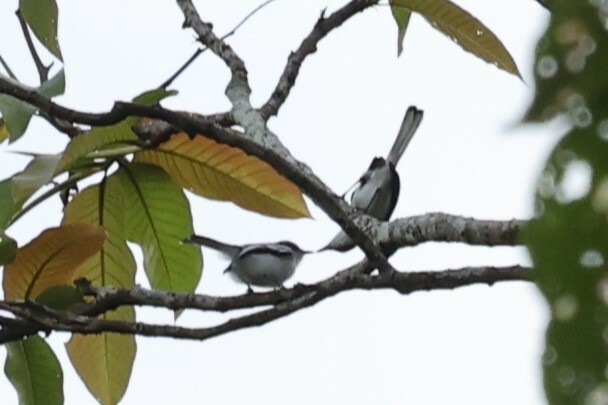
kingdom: Animalia
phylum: Chordata
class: Aves
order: Passeriformes
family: Polioptilidae
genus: Polioptila
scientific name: Polioptila plumbea
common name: Tropical gnatcatcher
